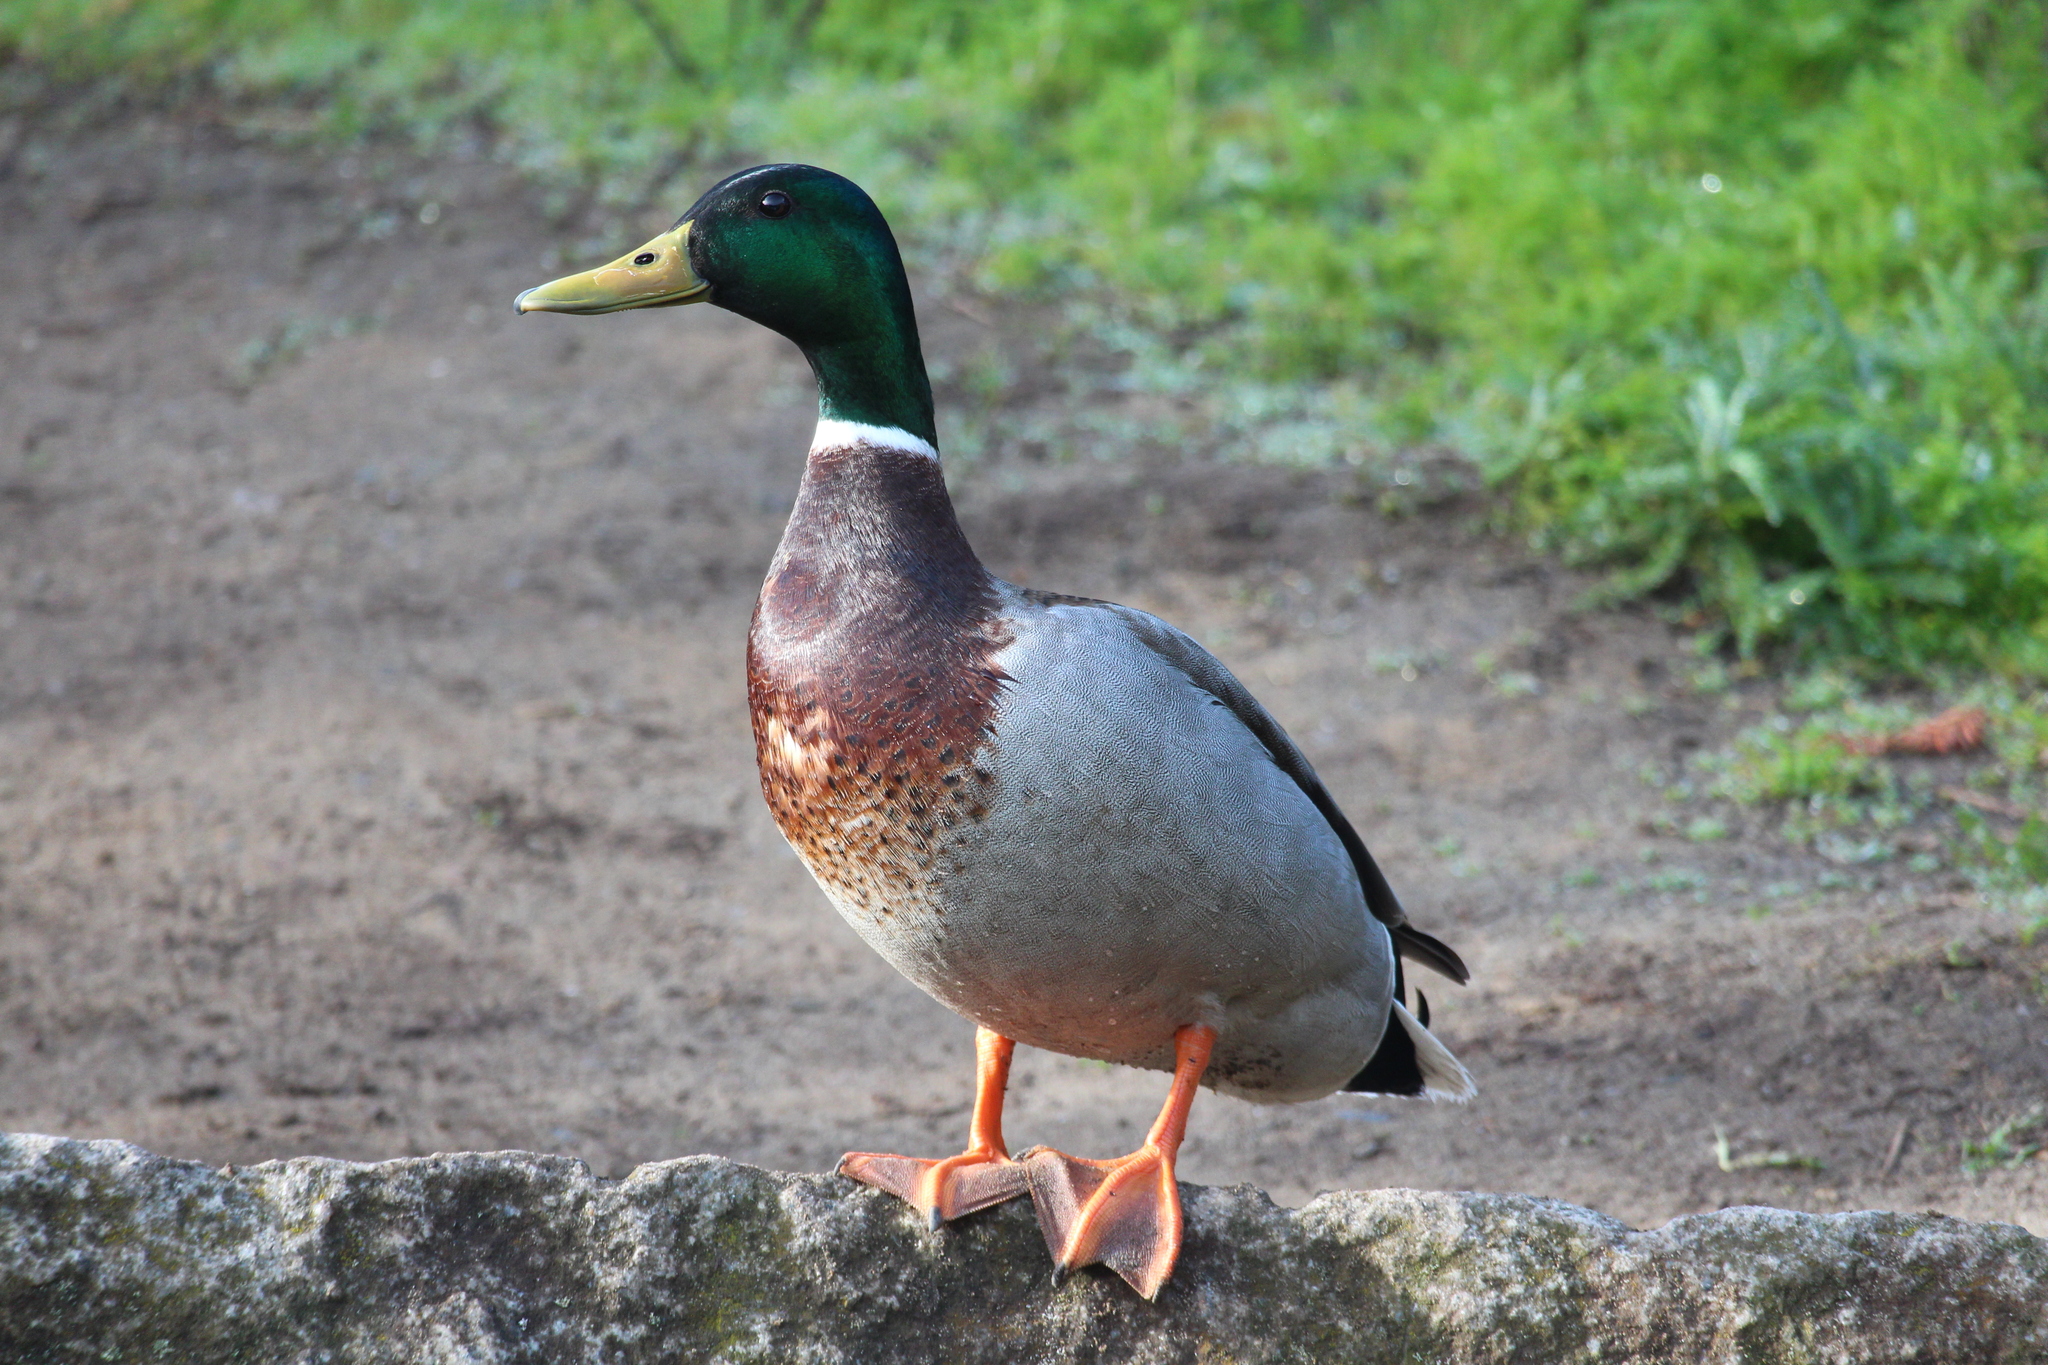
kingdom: Animalia
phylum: Chordata
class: Aves
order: Anseriformes
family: Anatidae
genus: Anas
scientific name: Anas platyrhynchos
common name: Mallard
